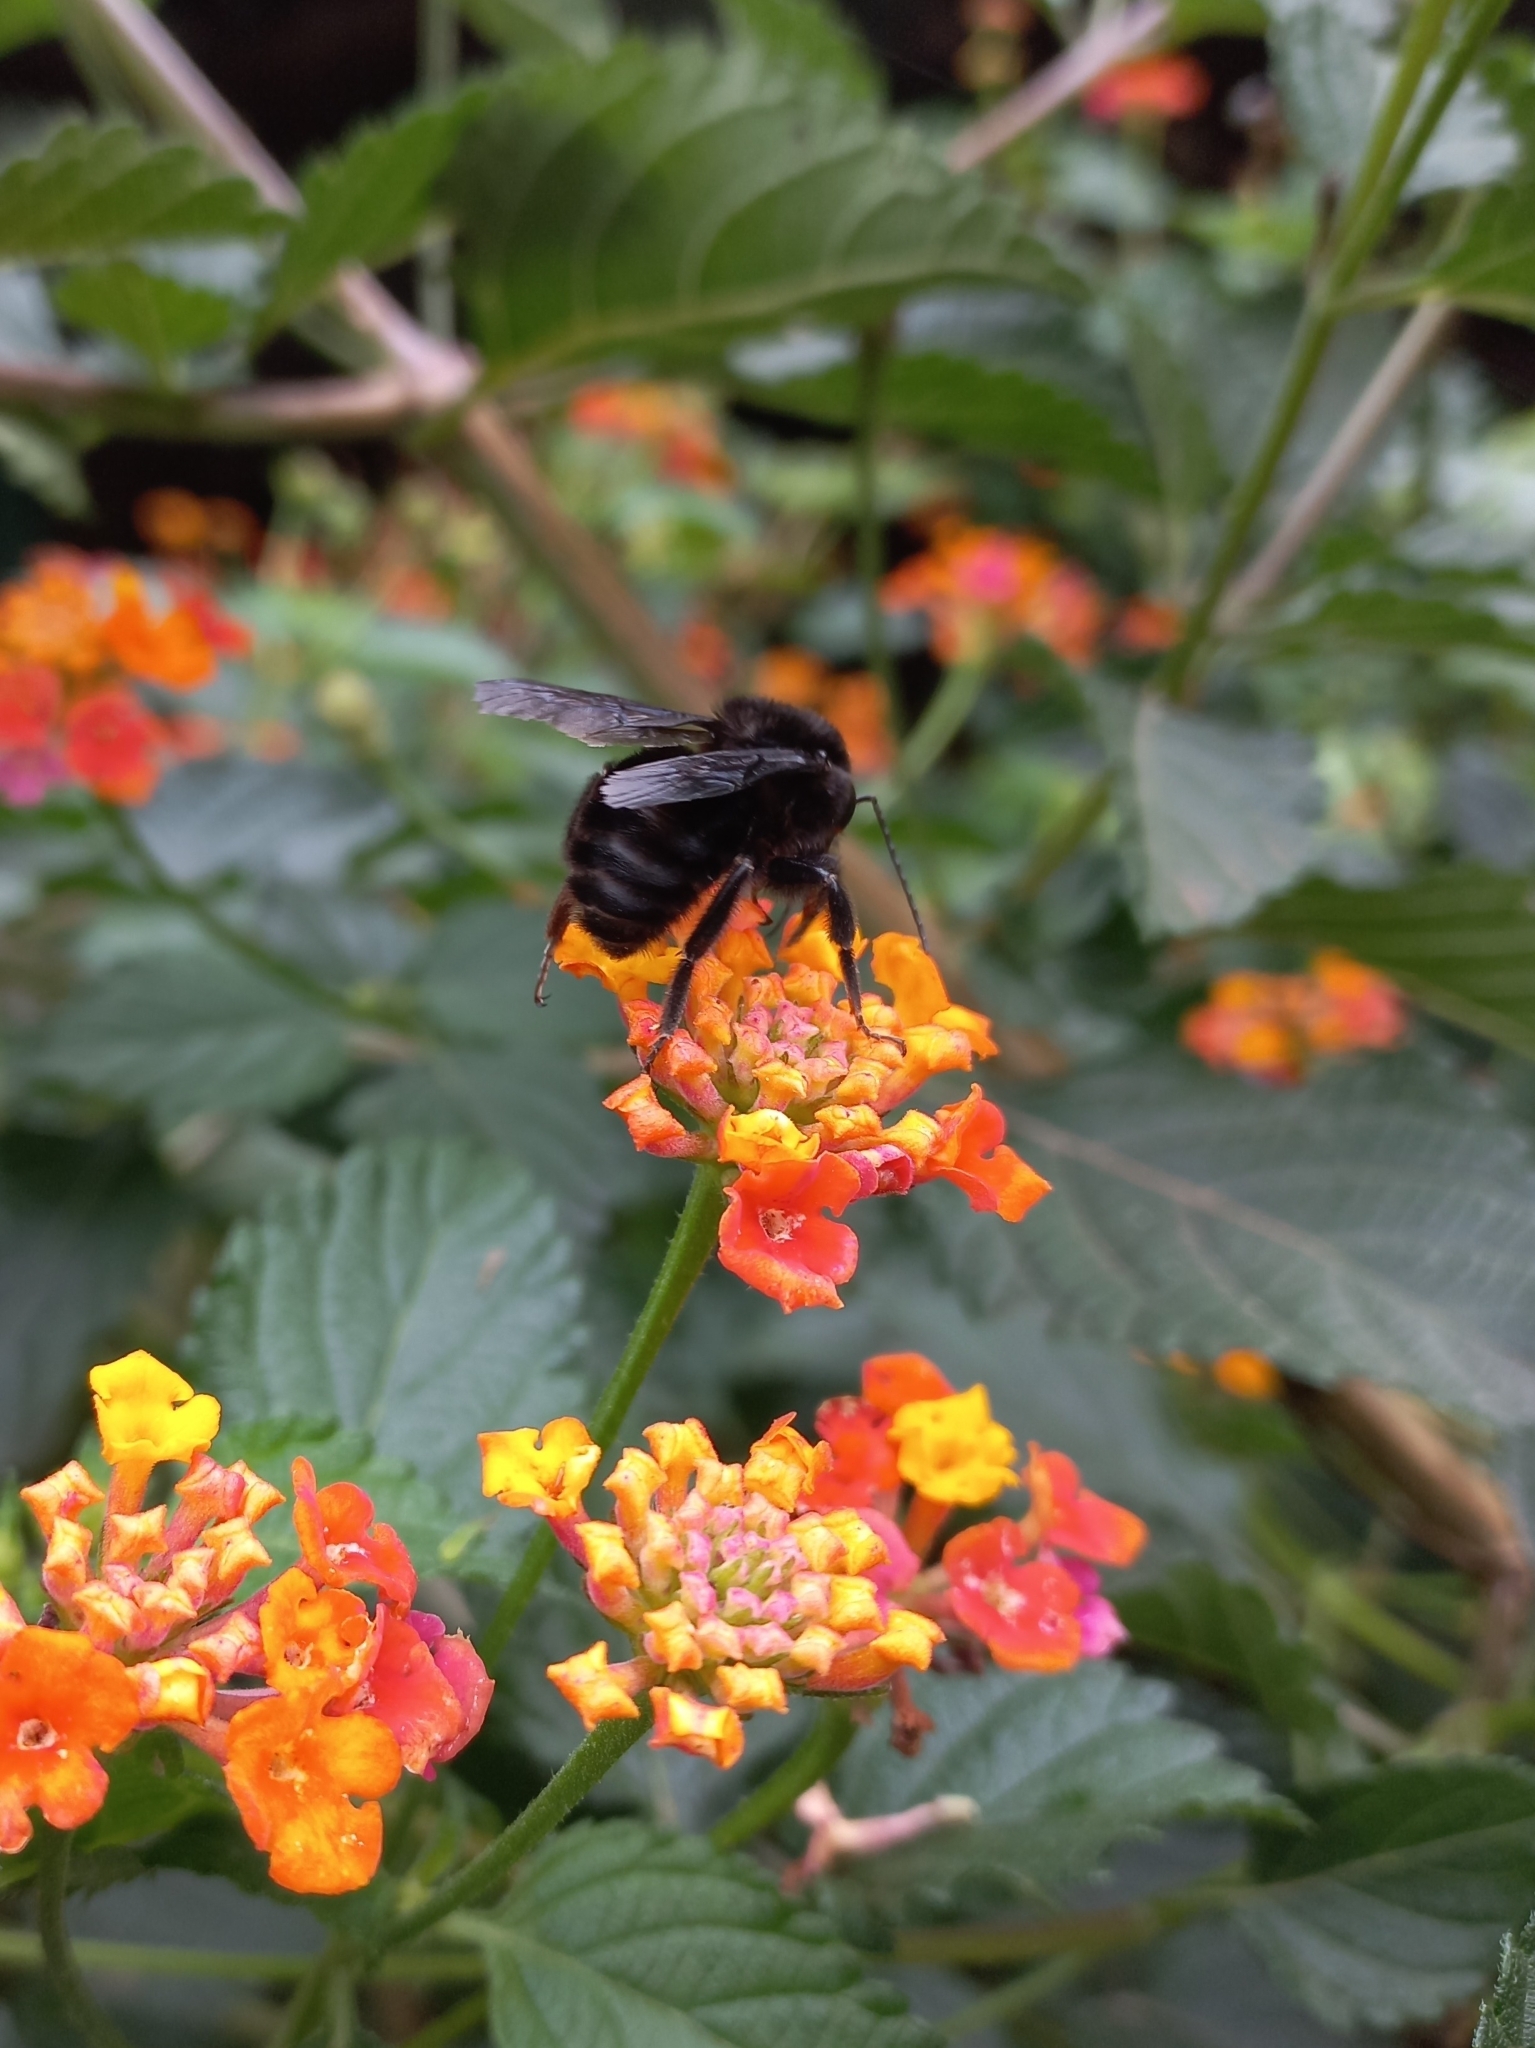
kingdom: Animalia
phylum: Arthropoda
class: Insecta
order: Hymenoptera
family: Apidae
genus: Bombus
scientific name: Bombus pauloensis
